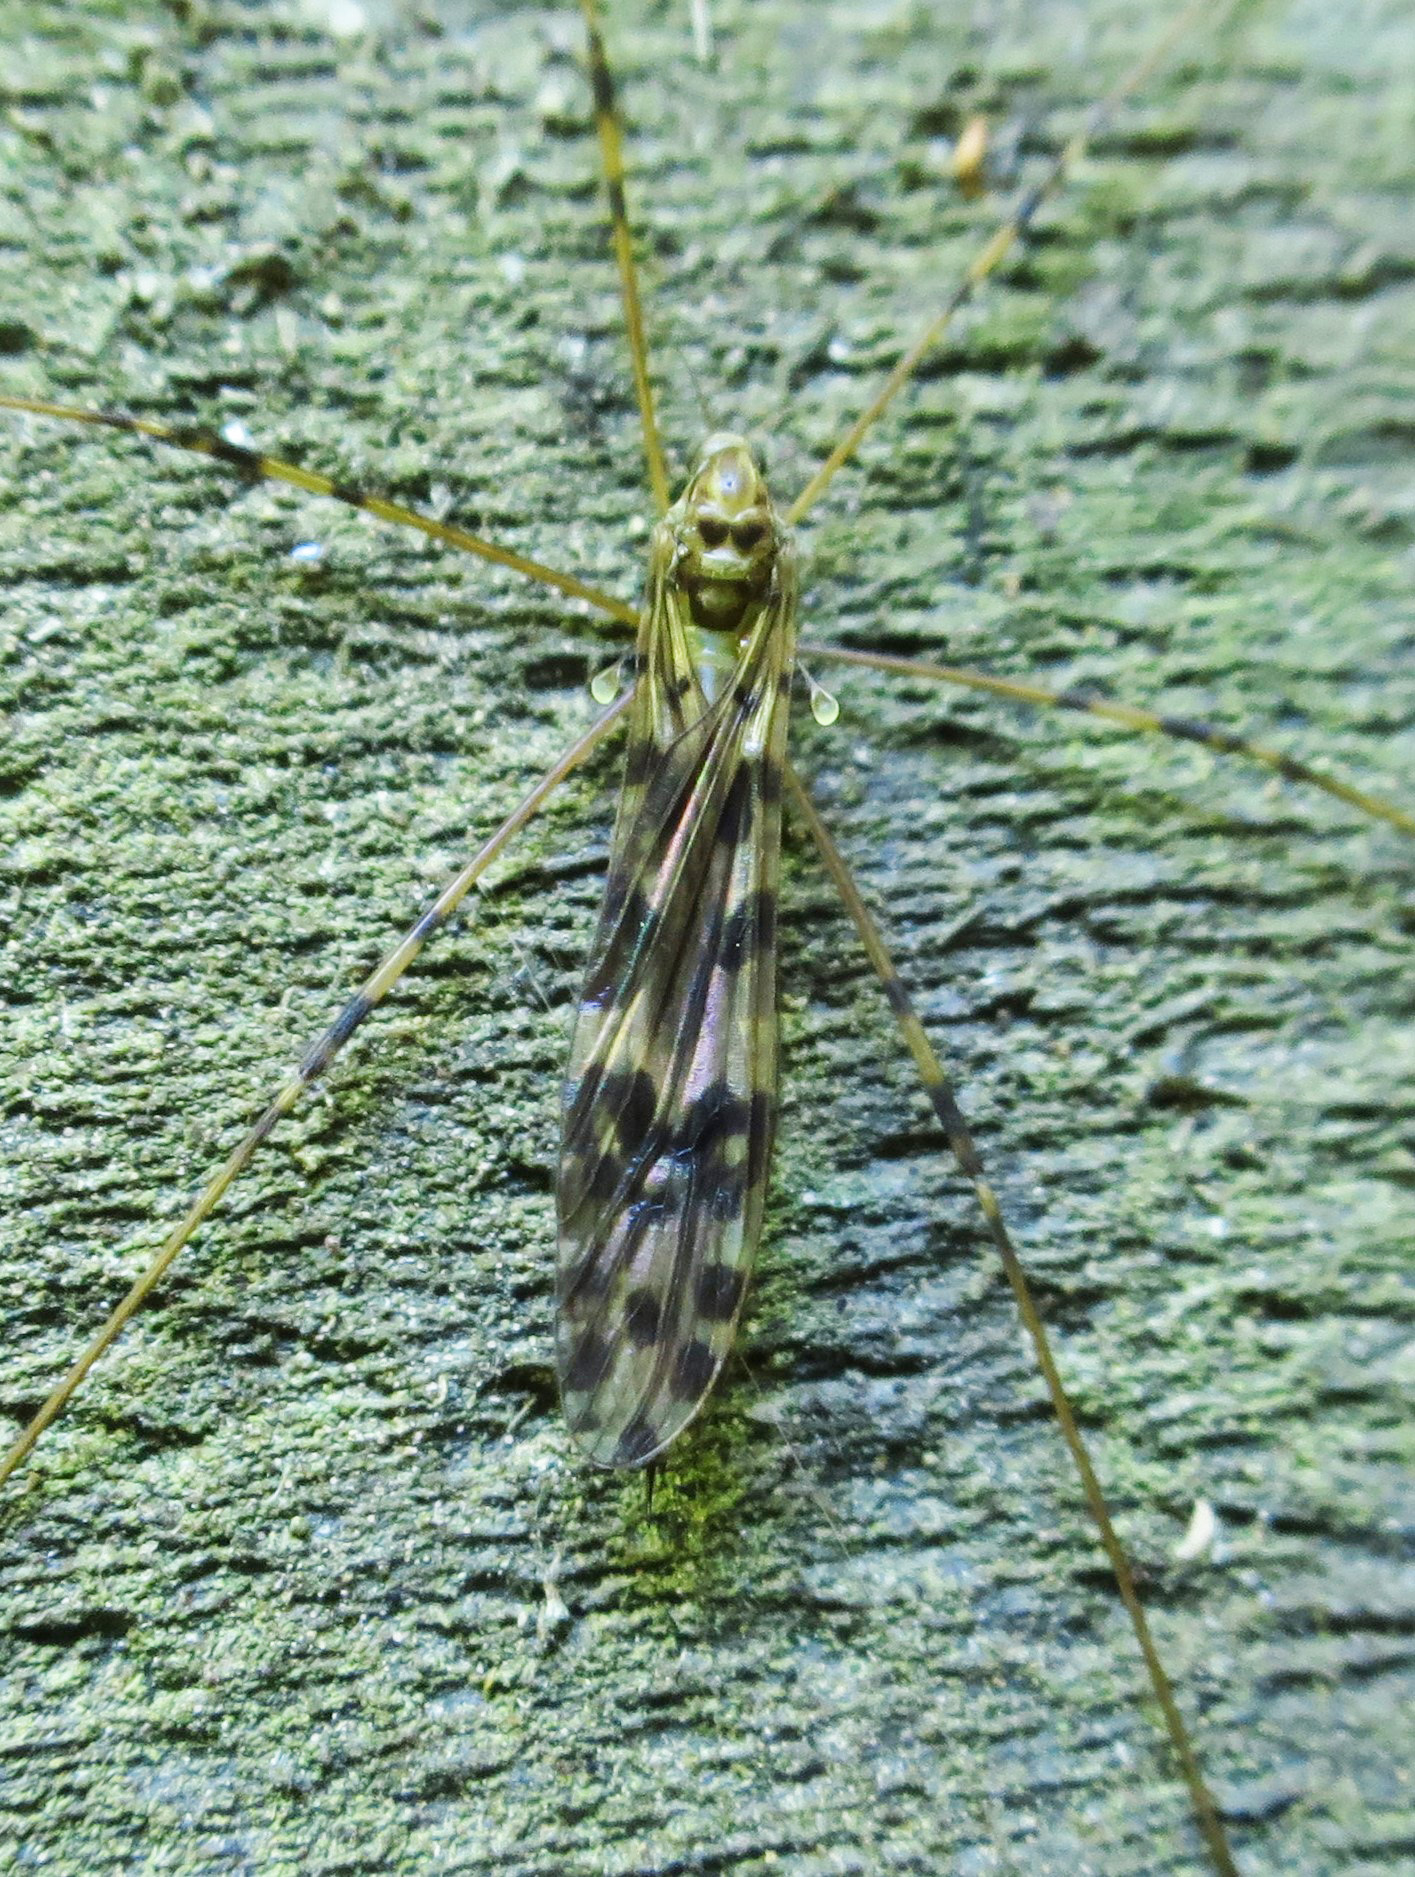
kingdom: Animalia
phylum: Arthropoda
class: Insecta
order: Diptera
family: Limoniidae
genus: Austrolimnophila
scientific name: Austrolimnophila nigrocincta
